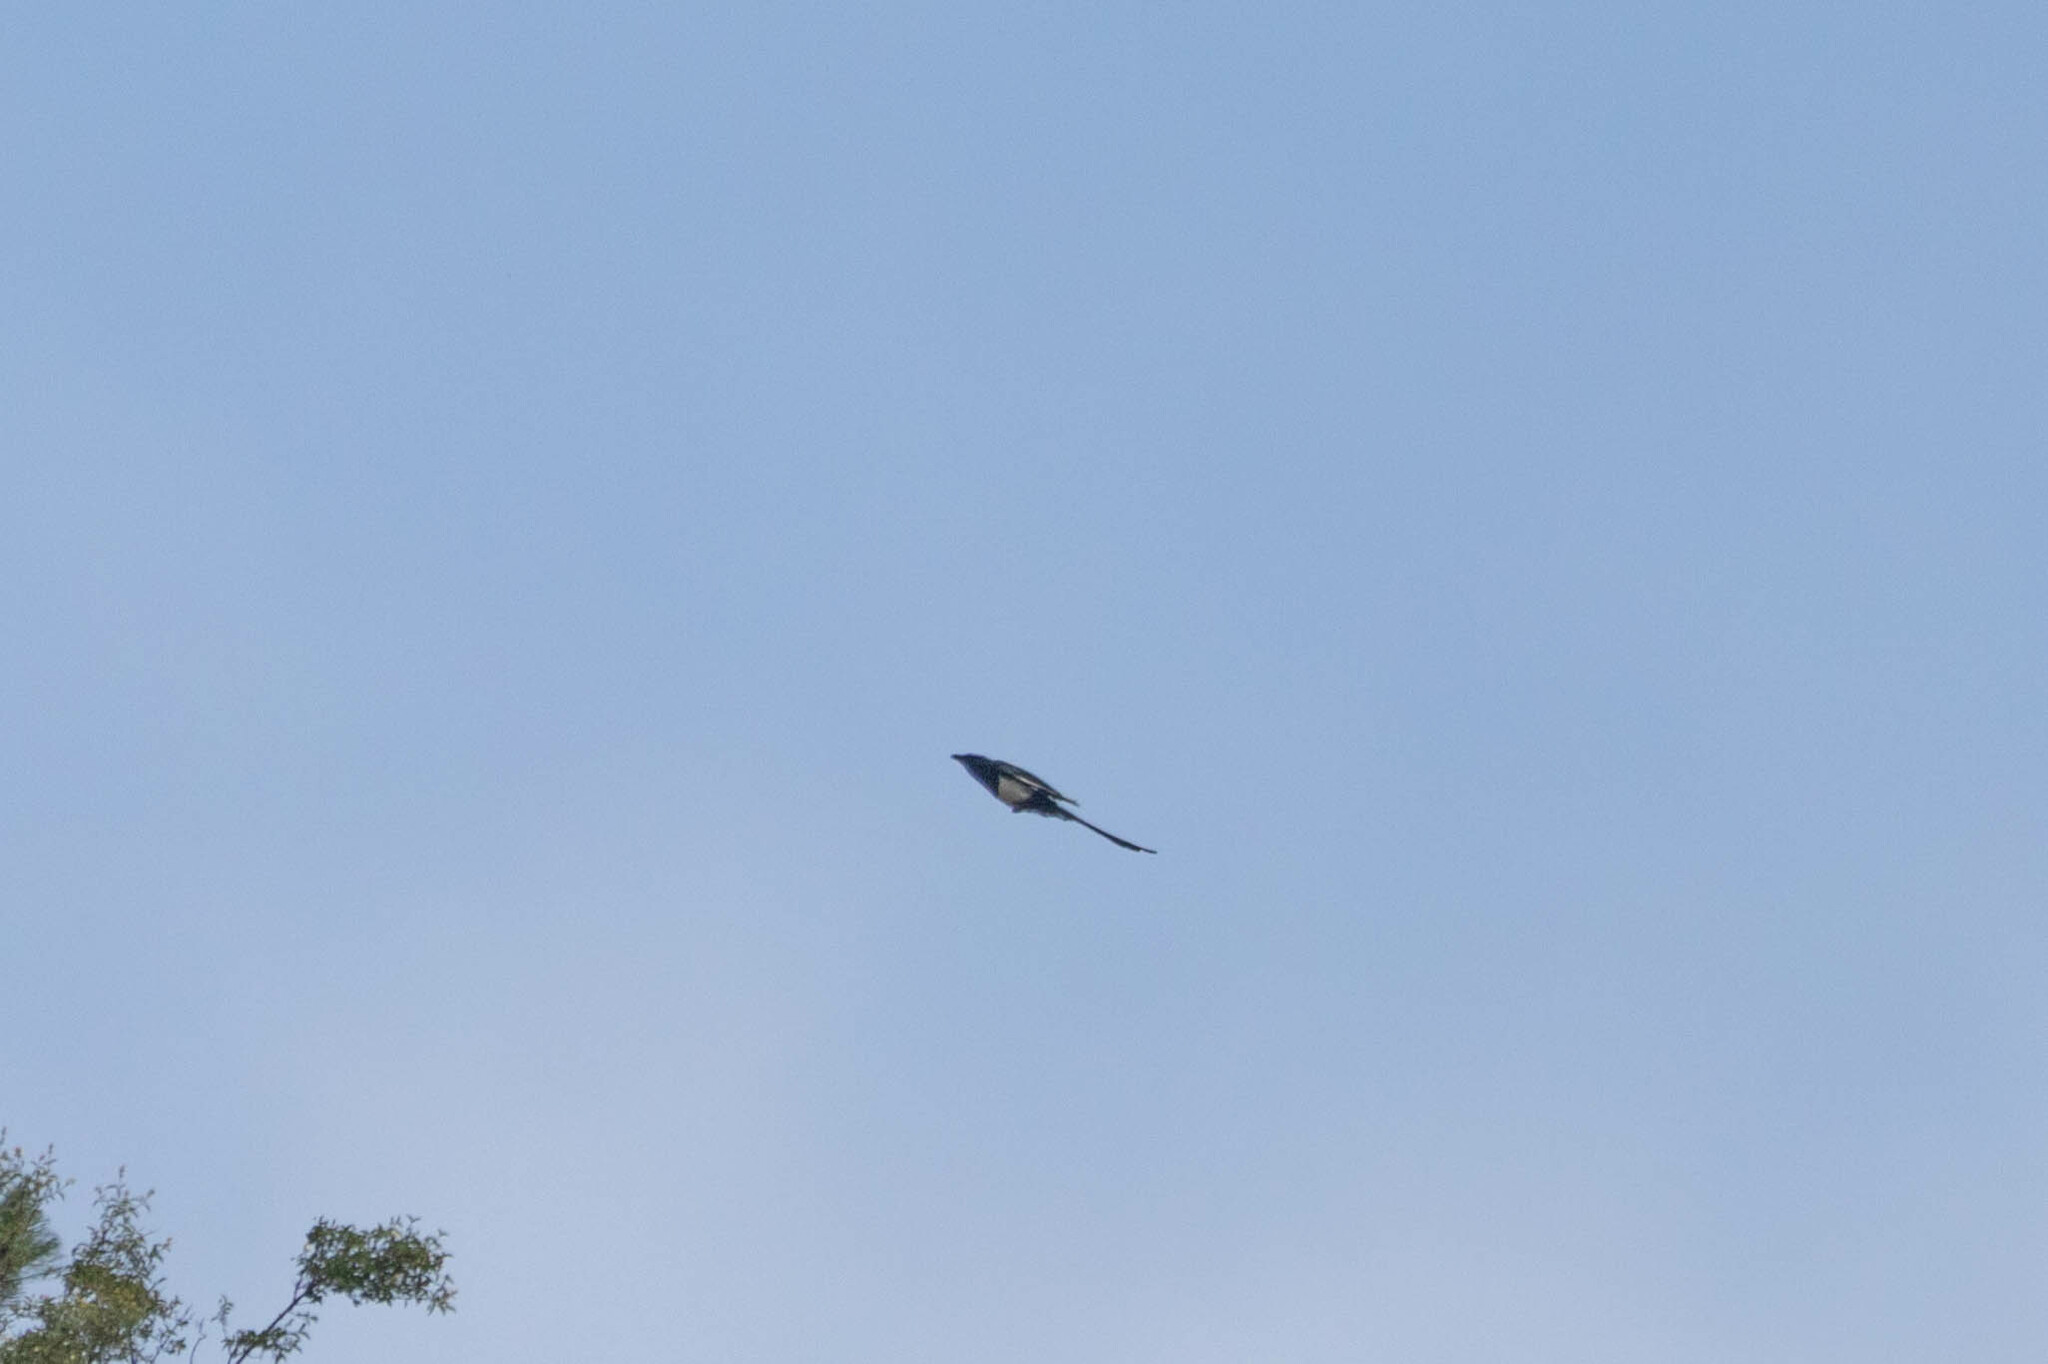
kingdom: Animalia
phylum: Chordata
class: Aves
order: Passeriformes
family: Corvidae
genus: Pica
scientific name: Pica hudsonia
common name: Black-billed magpie
